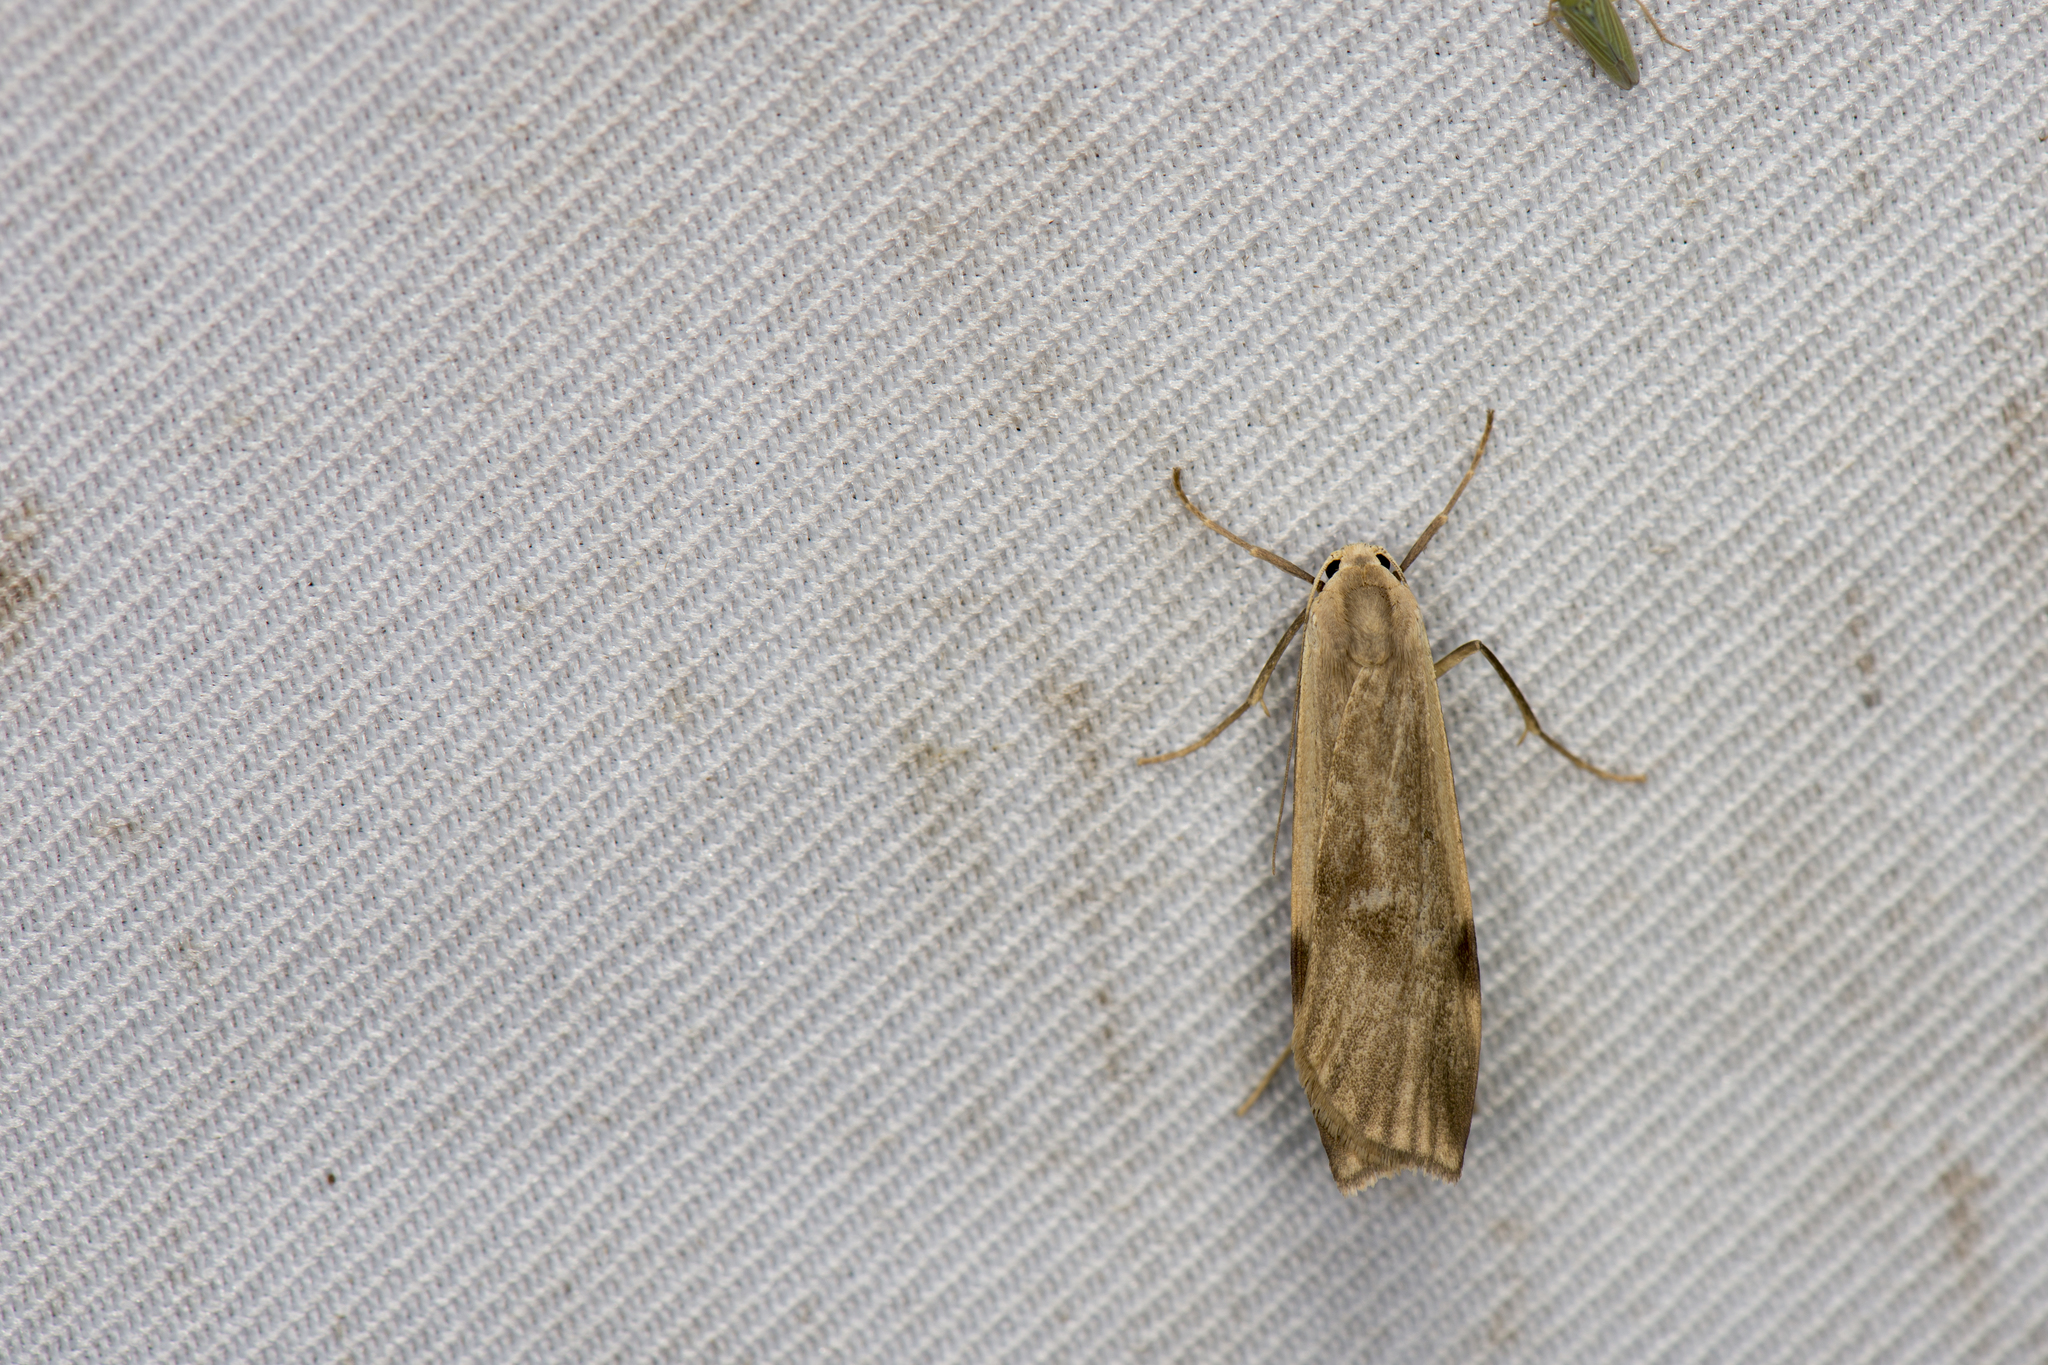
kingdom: Animalia
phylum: Arthropoda
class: Insecta
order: Lepidoptera
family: Erebidae
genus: Prabhasa
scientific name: Prabhasa venosa
